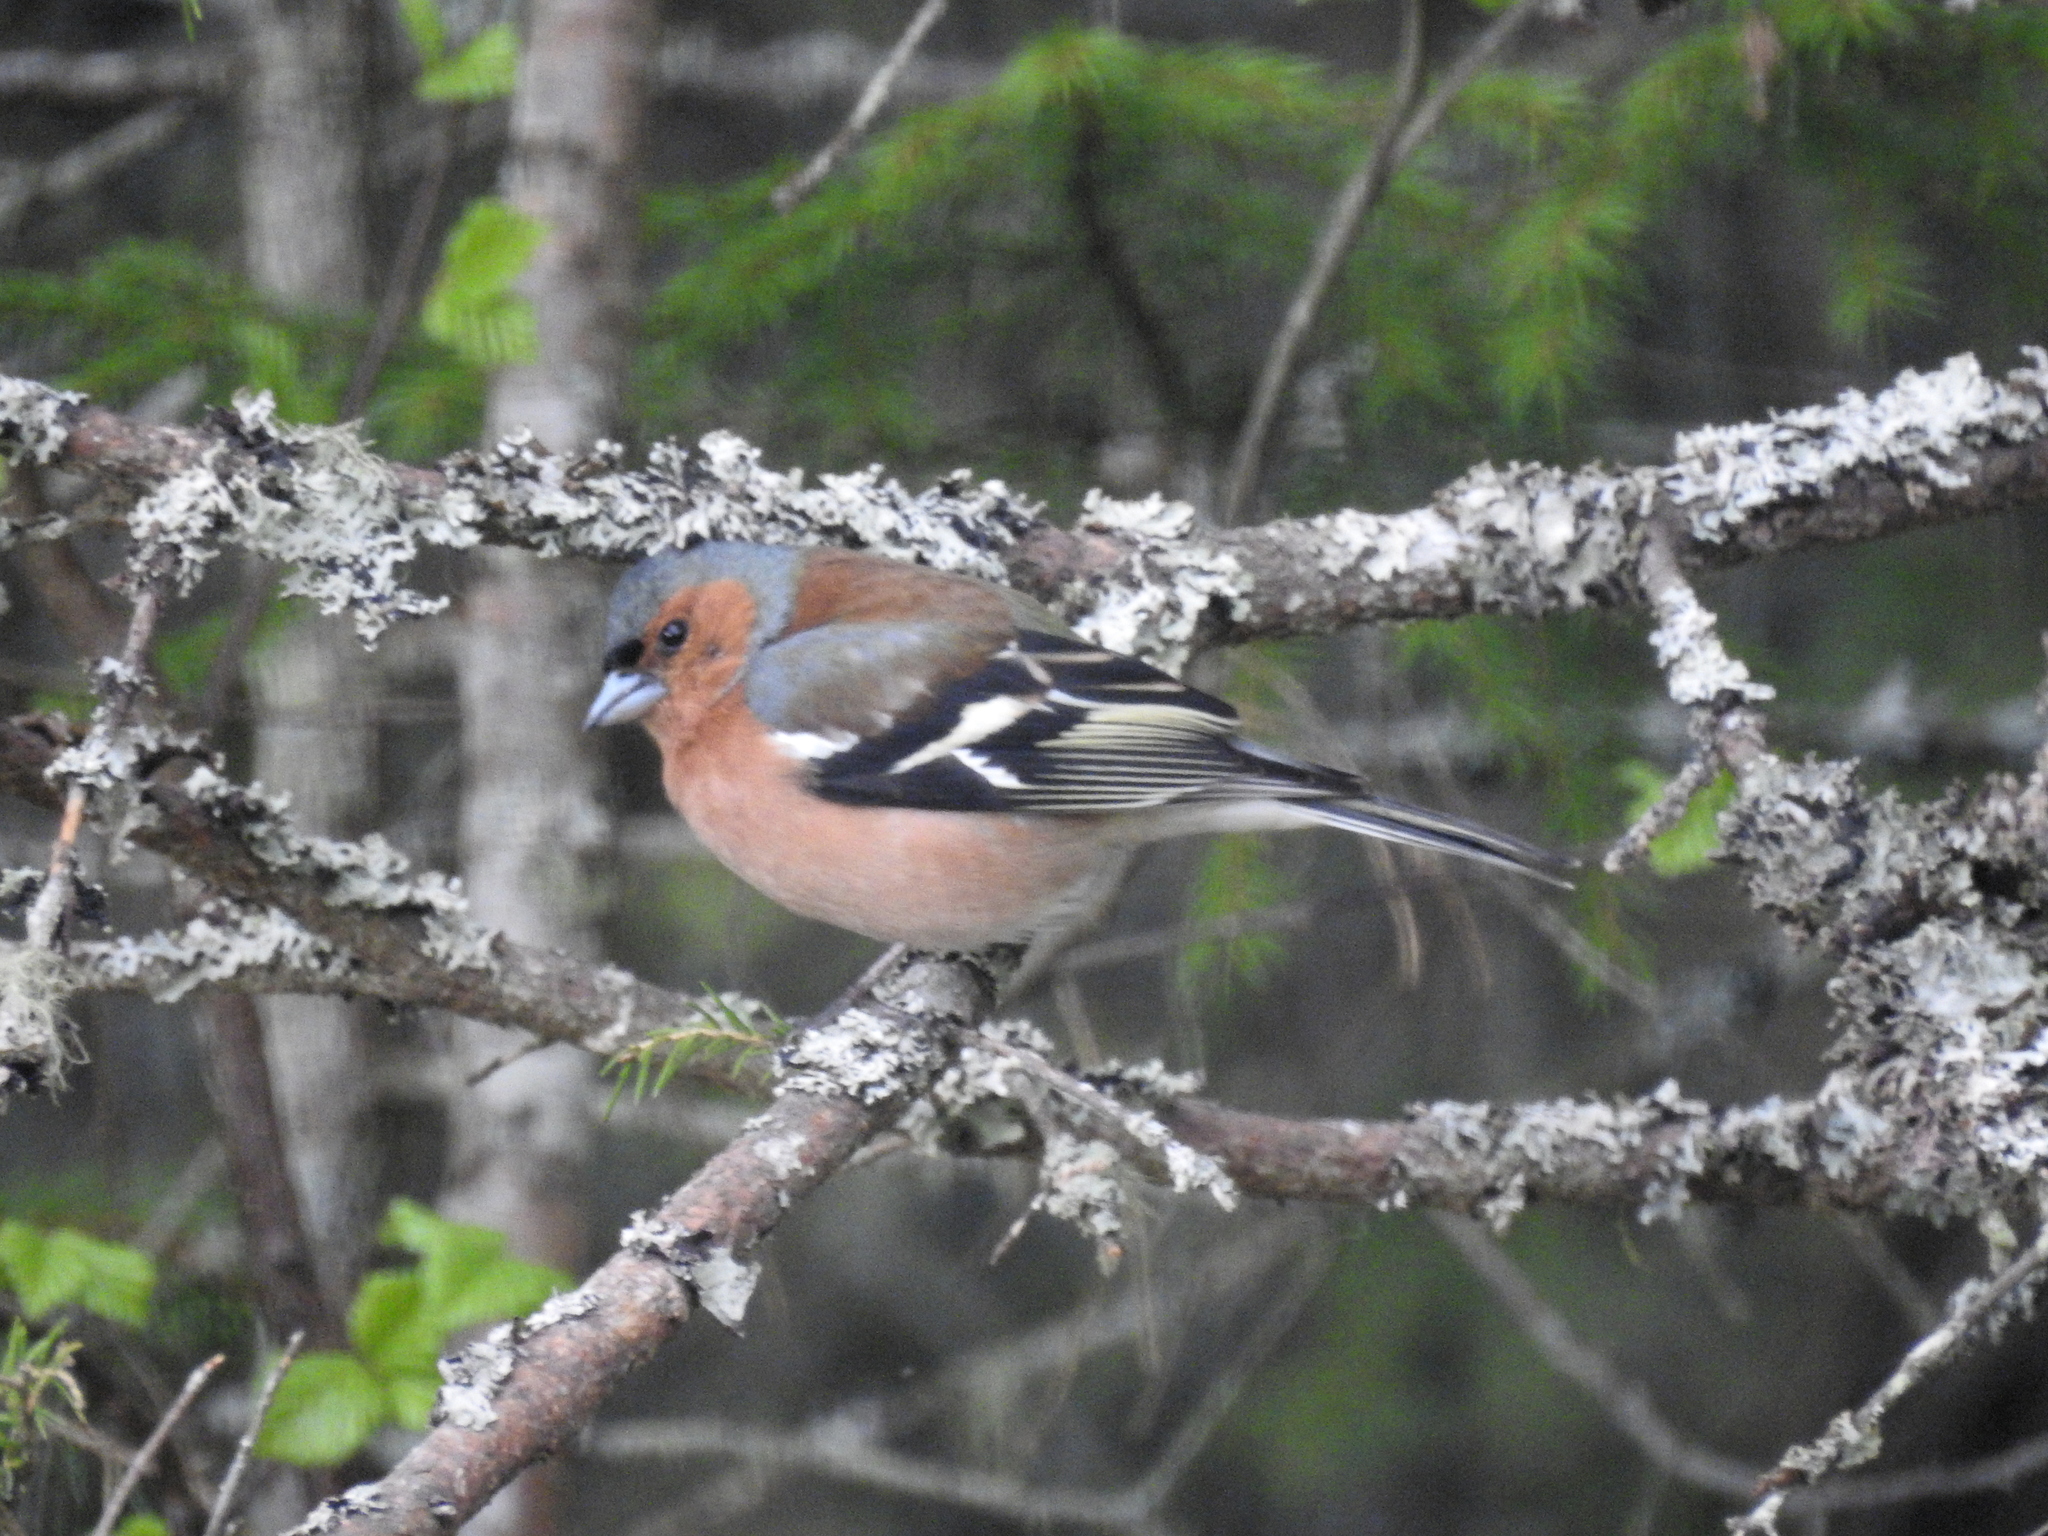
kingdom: Animalia
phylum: Chordata
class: Aves
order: Passeriformes
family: Fringillidae
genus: Fringilla
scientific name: Fringilla coelebs
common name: Common chaffinch
